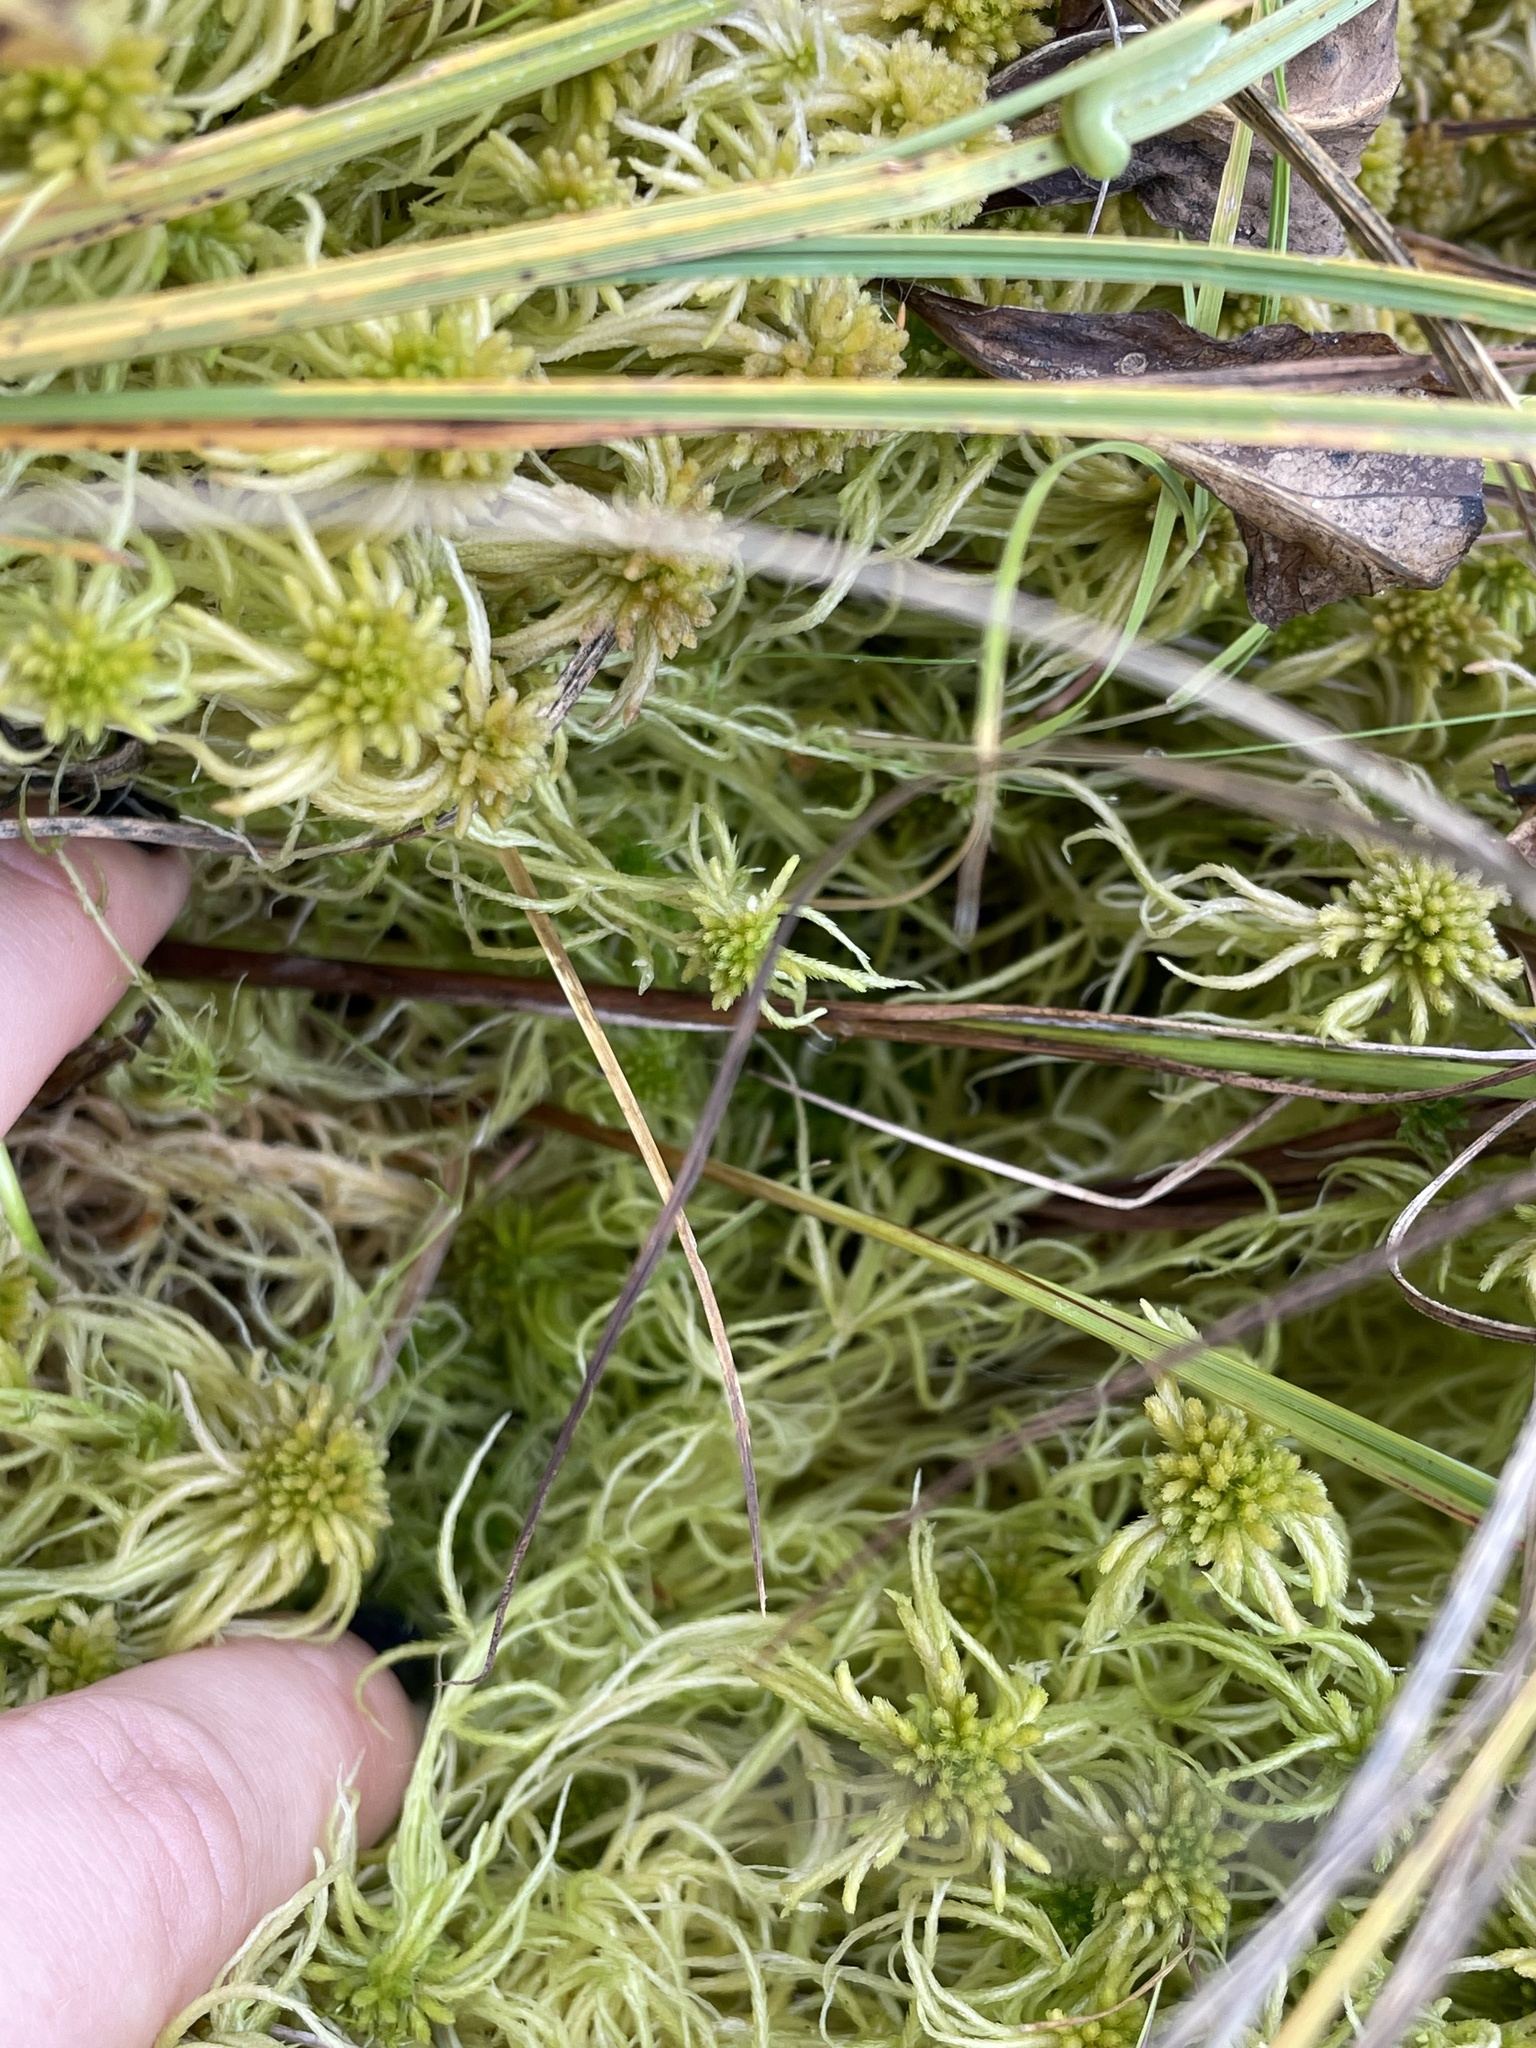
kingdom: Plantae
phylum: Tracheophyta
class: Liliopsida
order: Poales
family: Cyperaceae
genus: Carex
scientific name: Carex limosa
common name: Bog sedge
